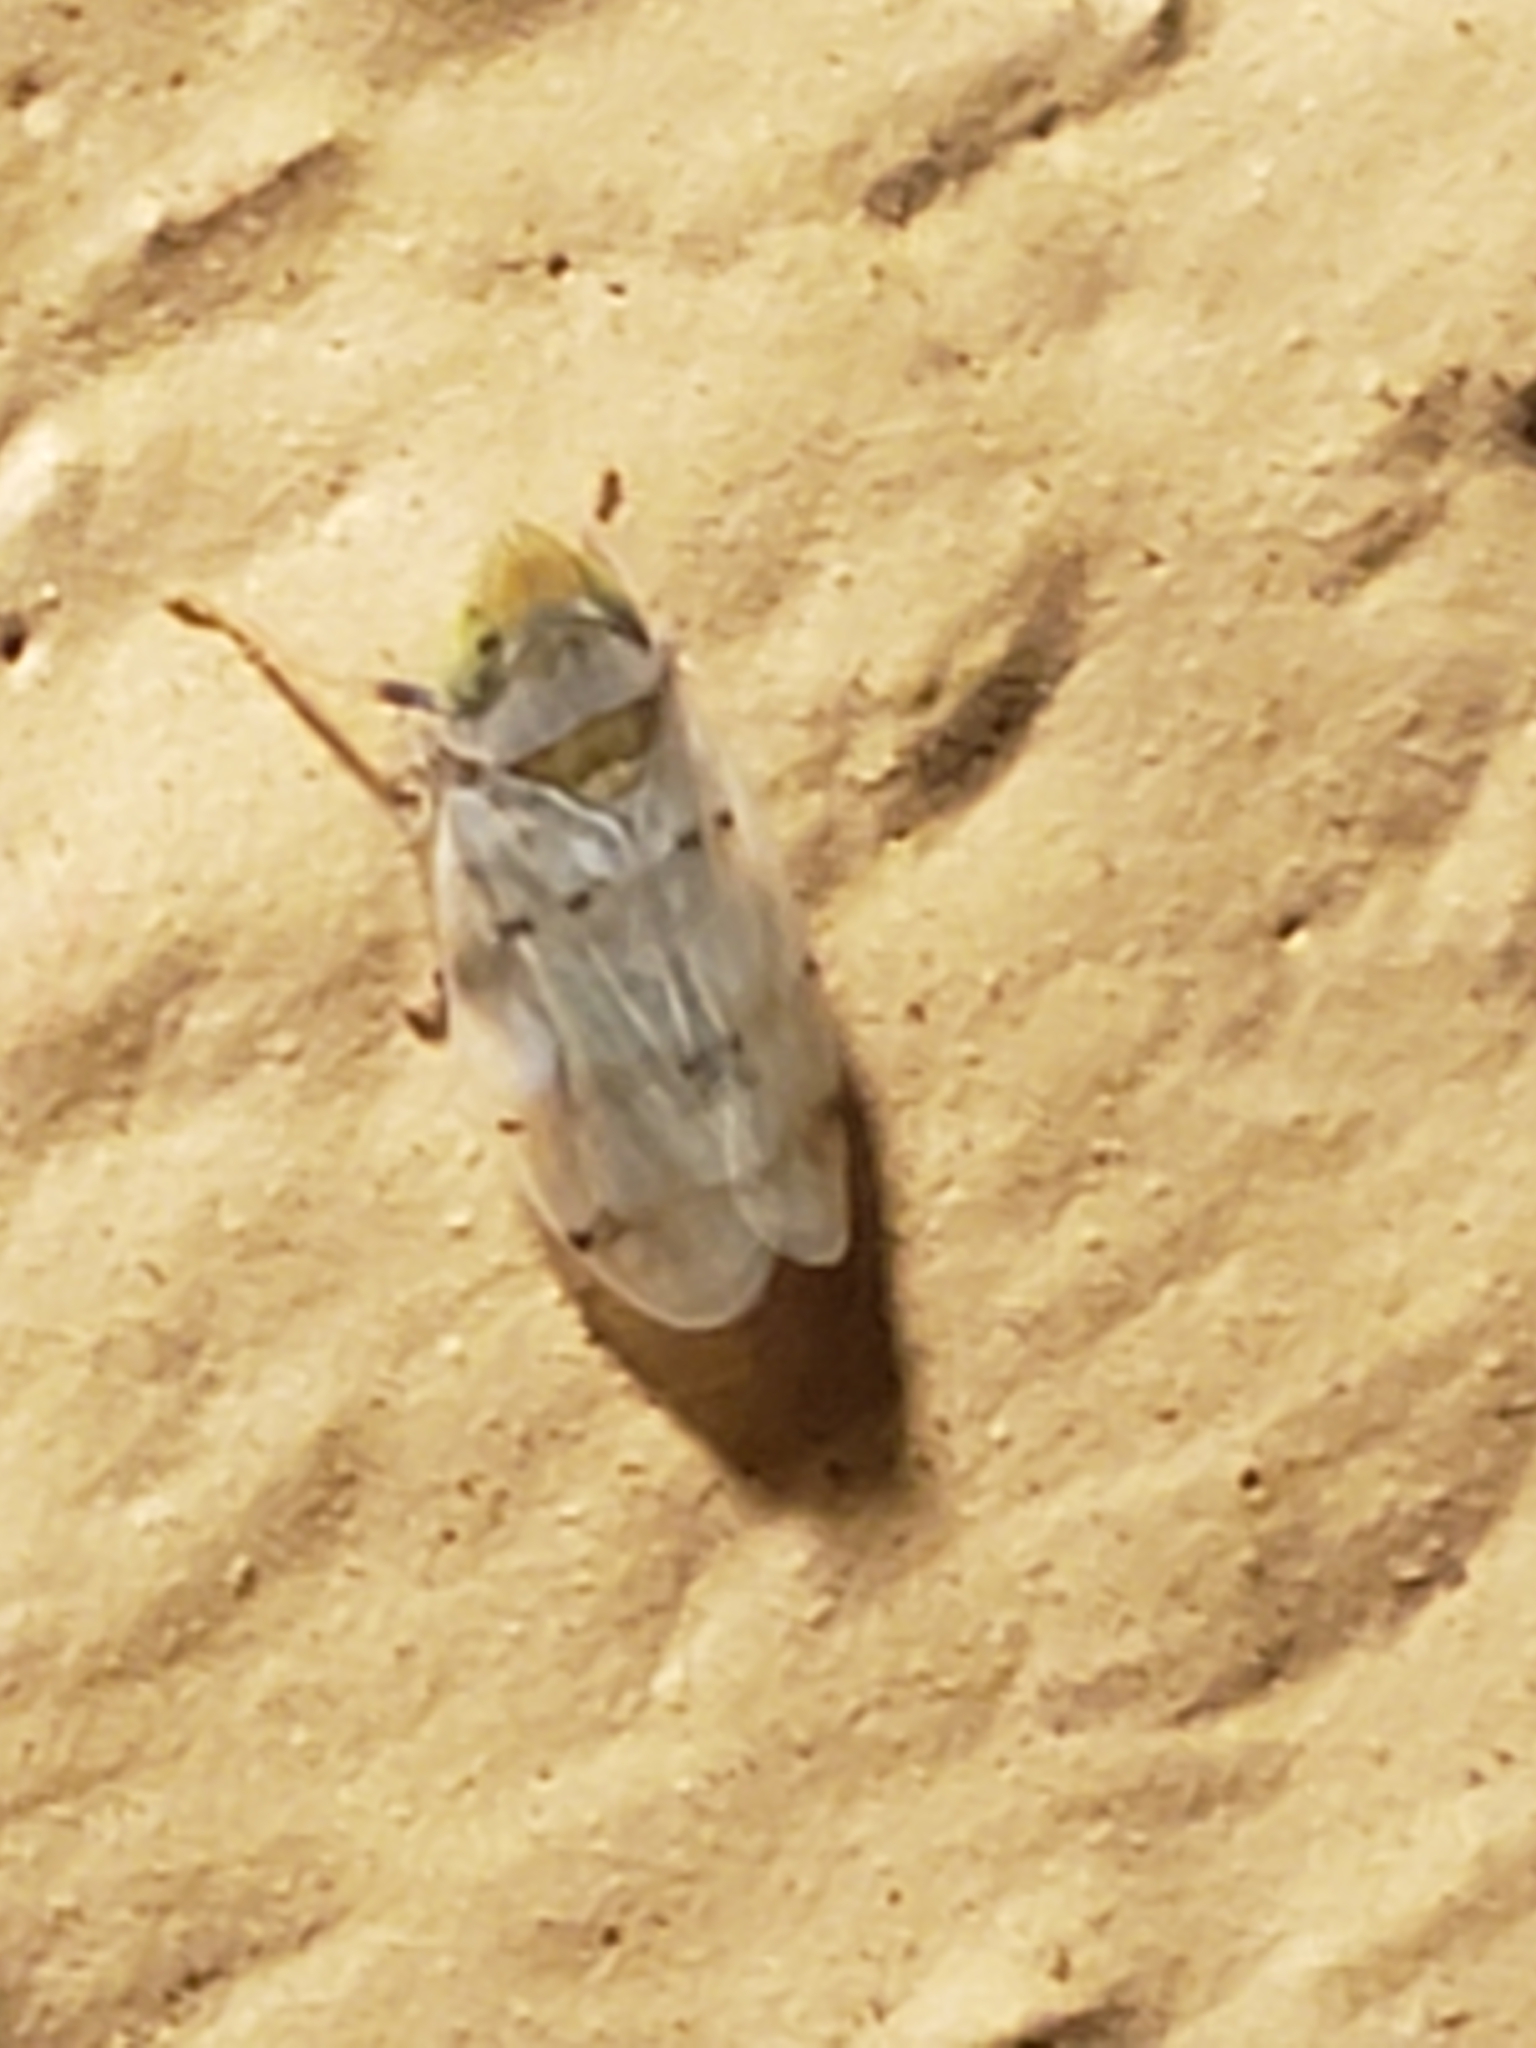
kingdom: Animalia
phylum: Arthropoda
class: Insecta
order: Hemiptera
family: Cicadellidae
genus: Japananus
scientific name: Japananus hyalinus
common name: The japanese maple leafhopper
